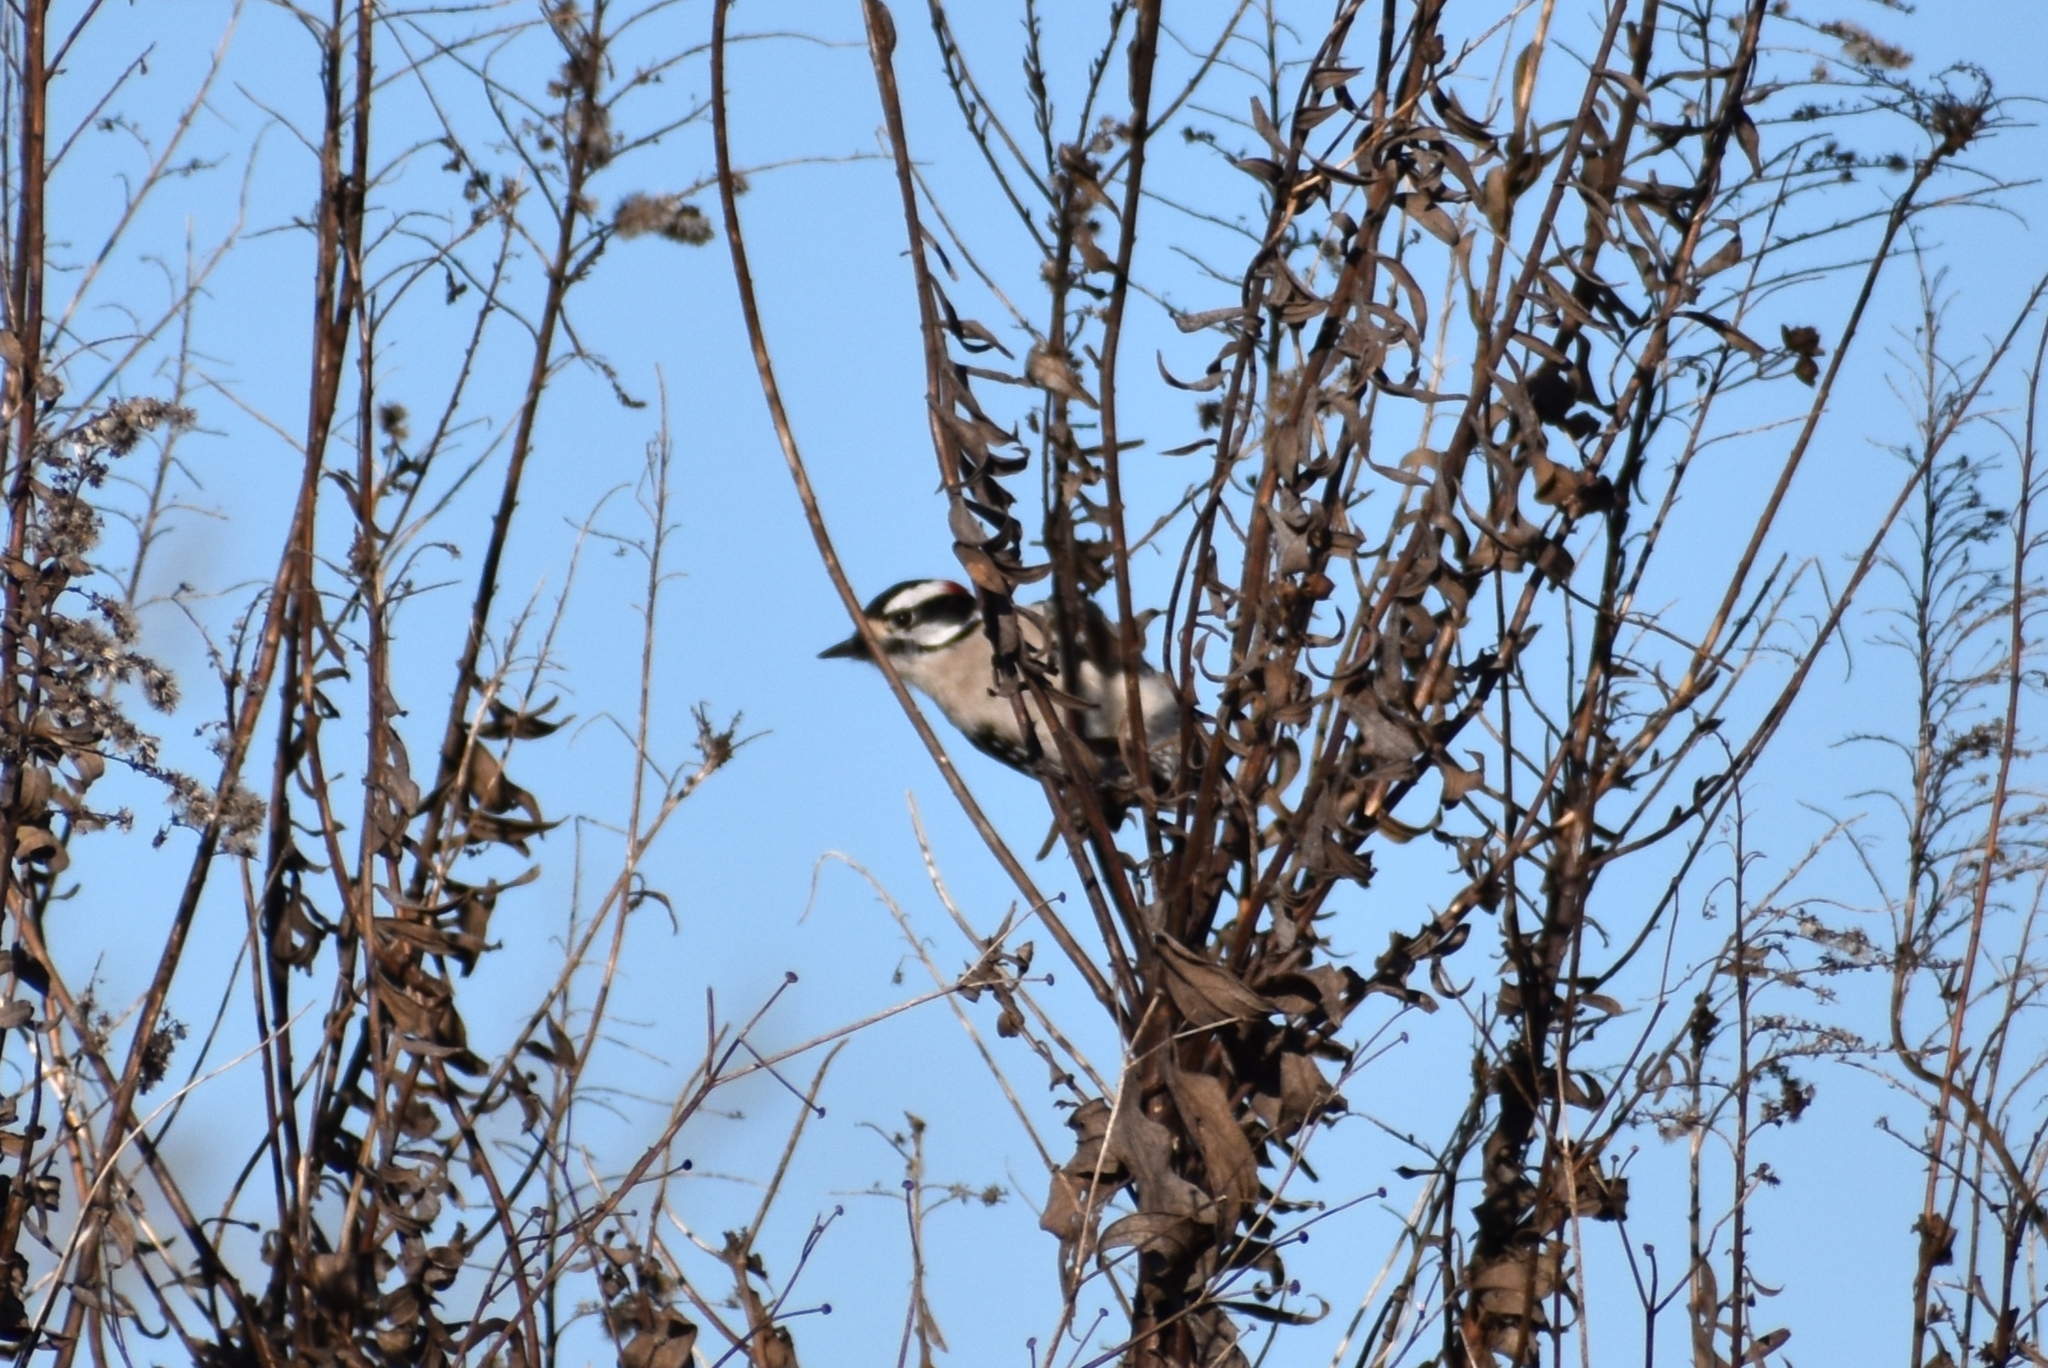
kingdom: Animalia
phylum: Chordata
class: Aves
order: Piciformes
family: Picidae
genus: Dryobates
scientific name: Dryobates pubescens
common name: Downy woodpecker
